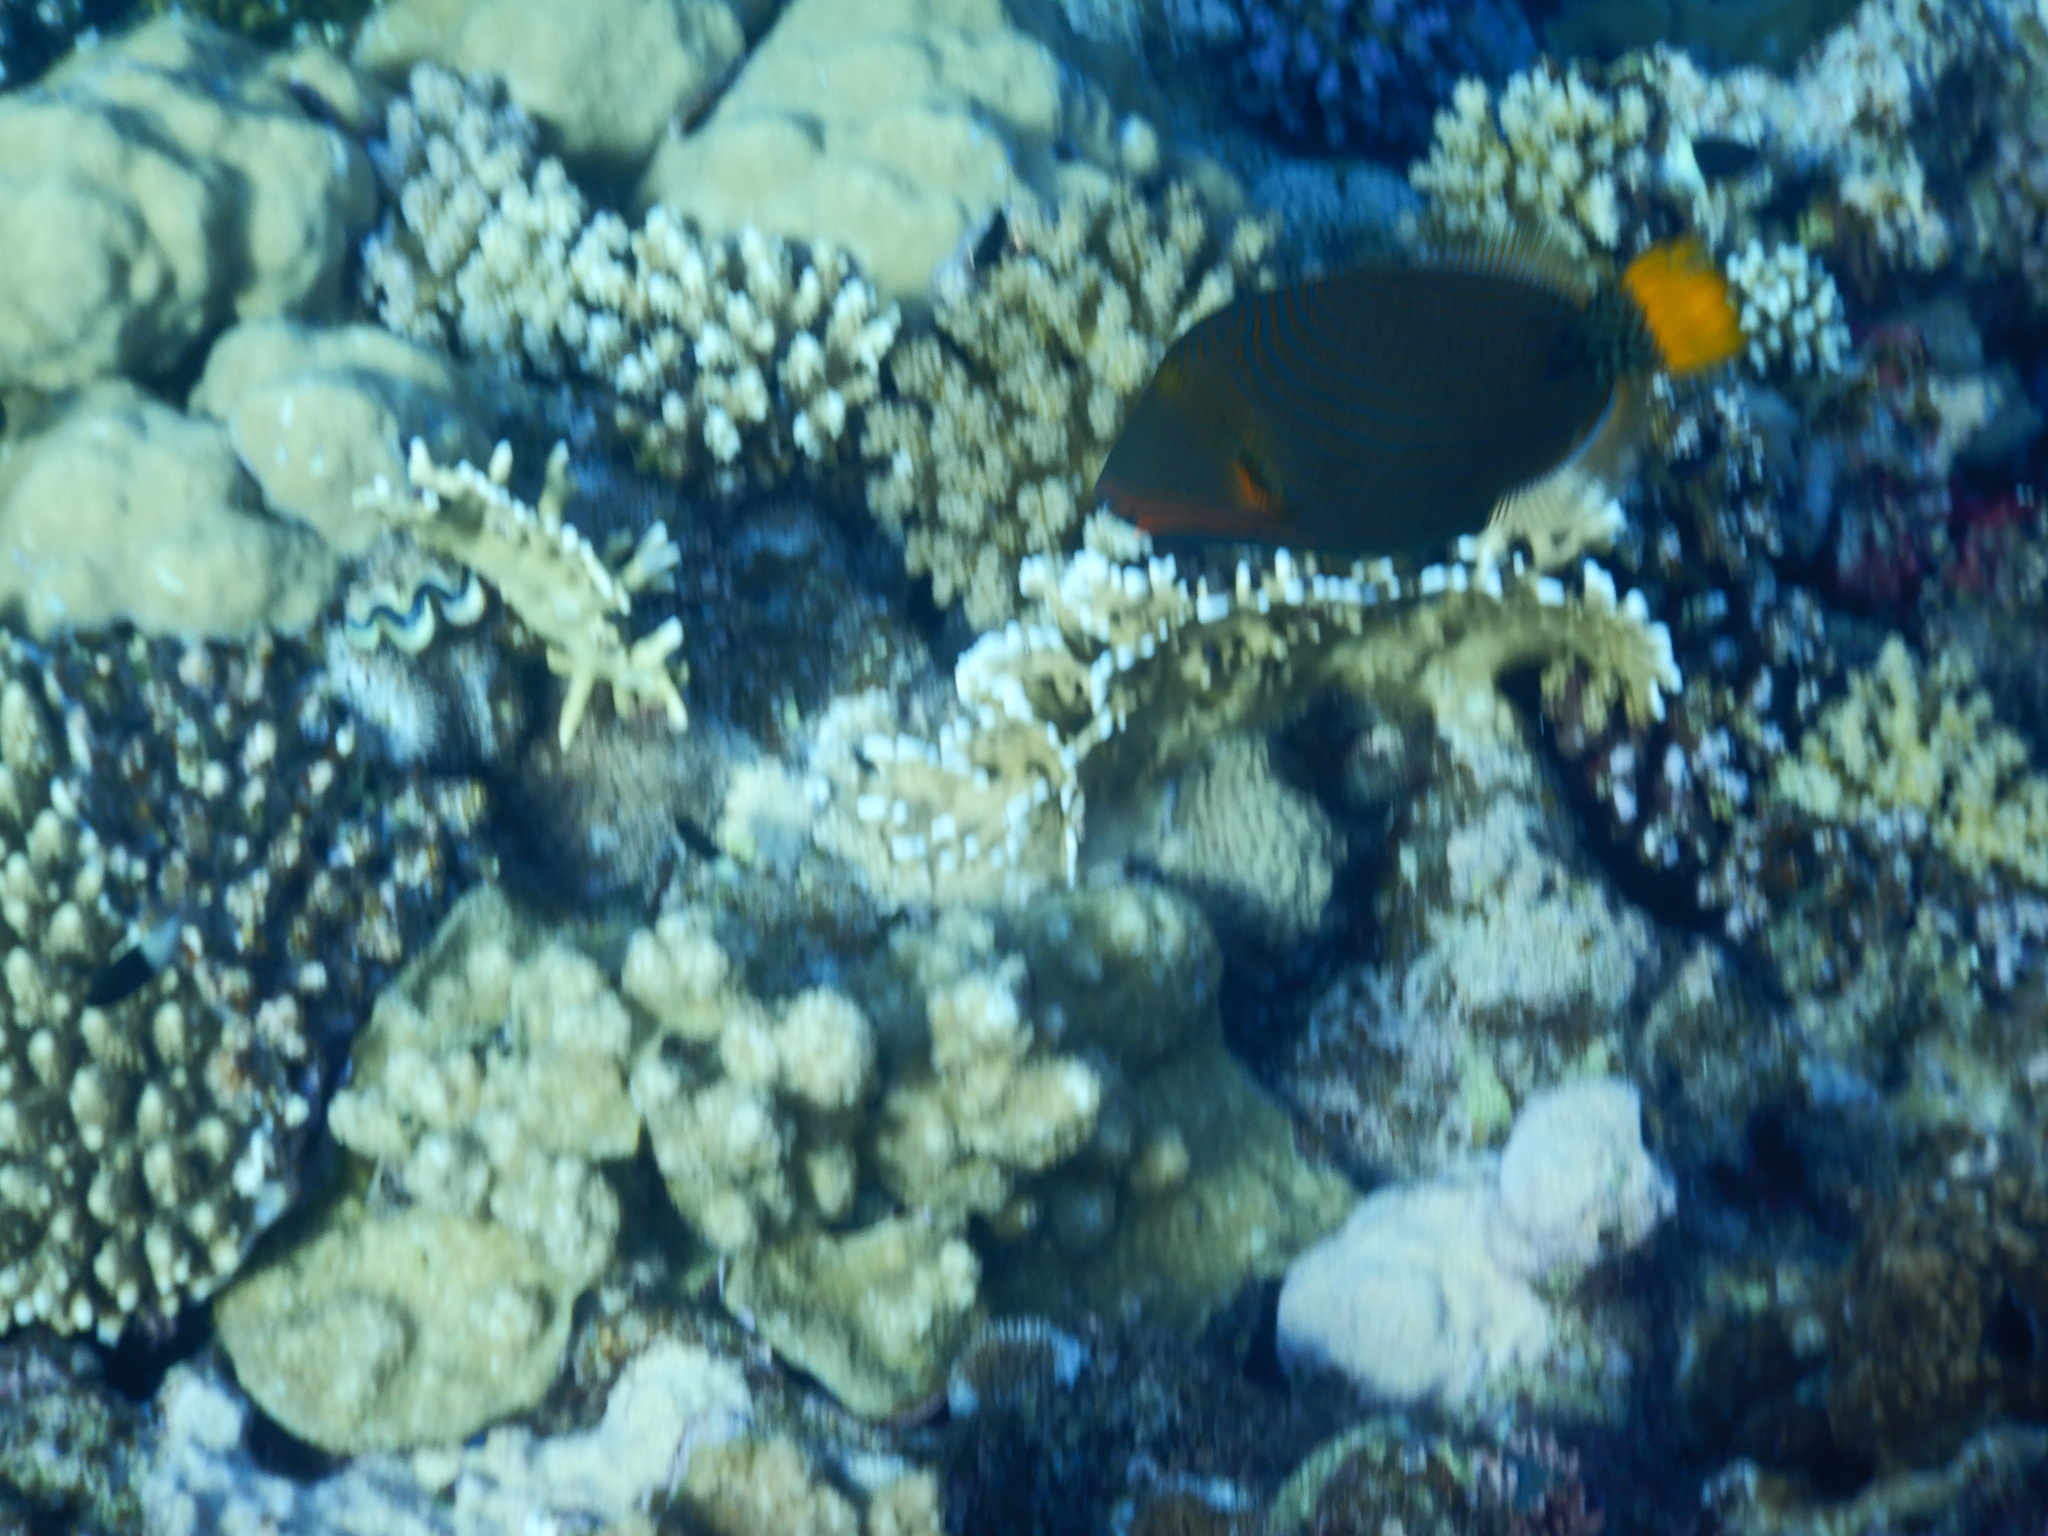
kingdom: Animalia
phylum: Chordata
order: Tetraodontiformes
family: Balistidae
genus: Balistapus
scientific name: Balistapus undulatus
